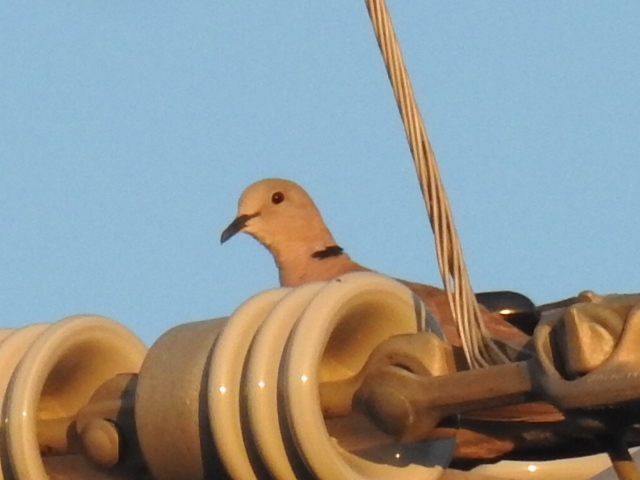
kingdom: Animalia
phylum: Chordata
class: Aves
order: Columbiformes
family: Columbidae
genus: Streptopelia
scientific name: Streptopelia decaocto
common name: Eurasian collared dove
